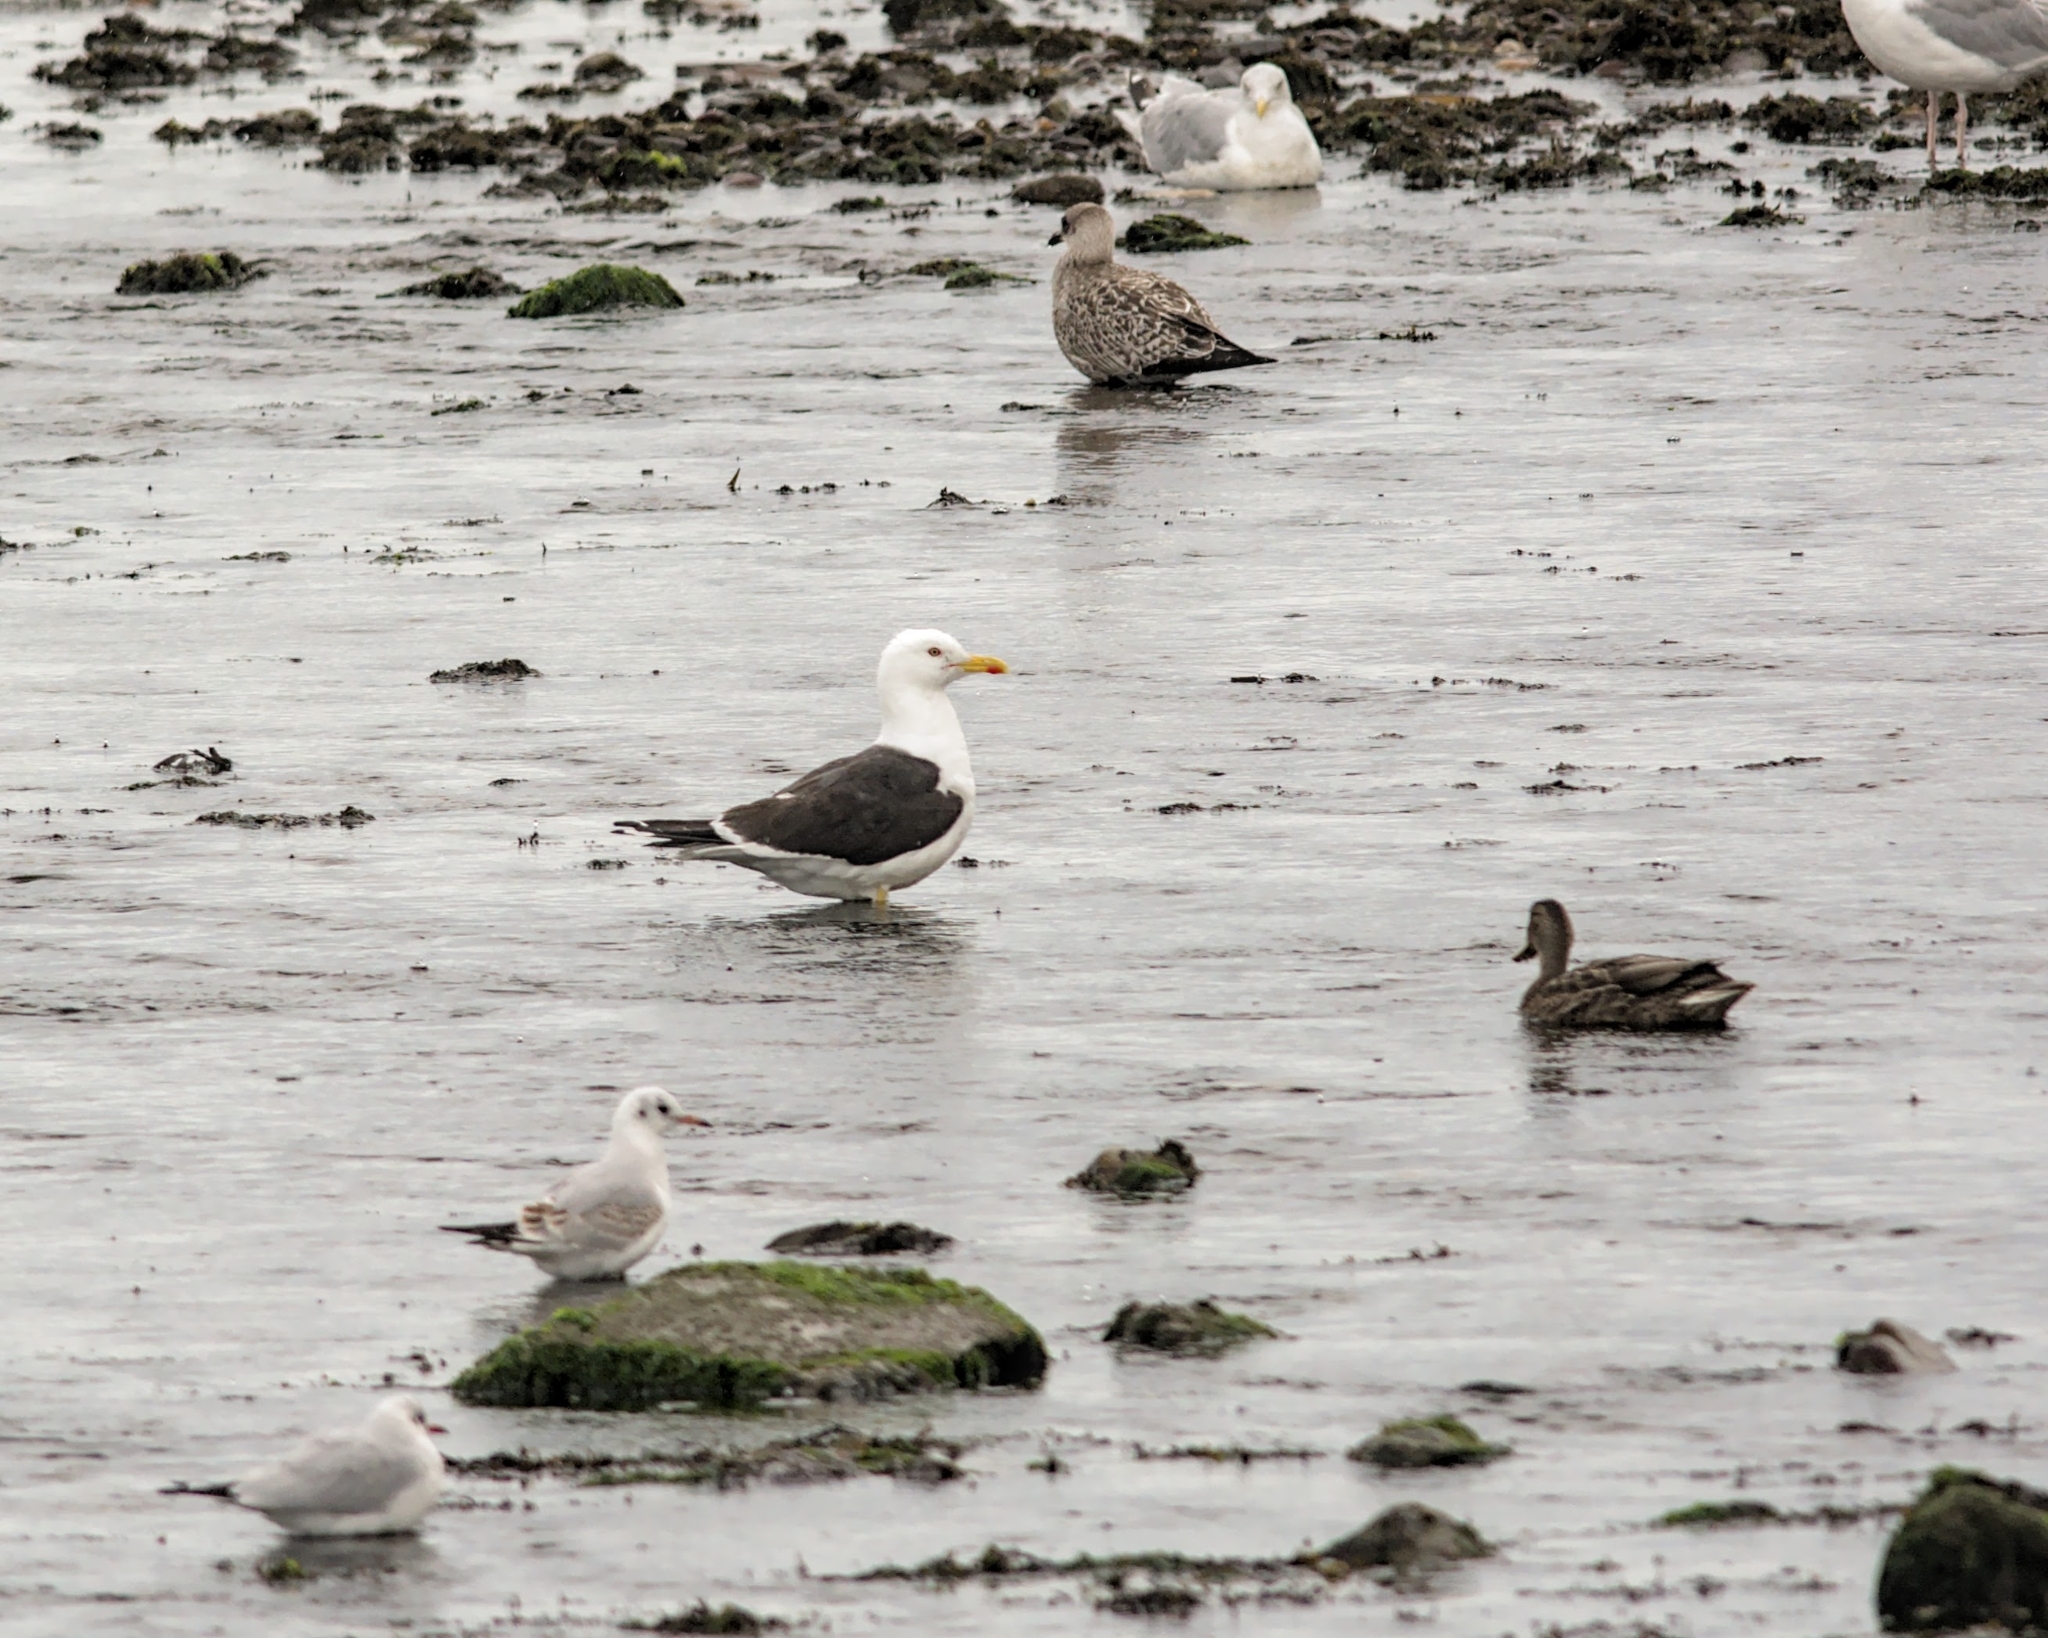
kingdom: Animalia
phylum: Chordata
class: Aves
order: Charadriiformes
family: Laridae
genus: Larus
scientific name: Larus fuscus
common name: Lesser black-backed gull
